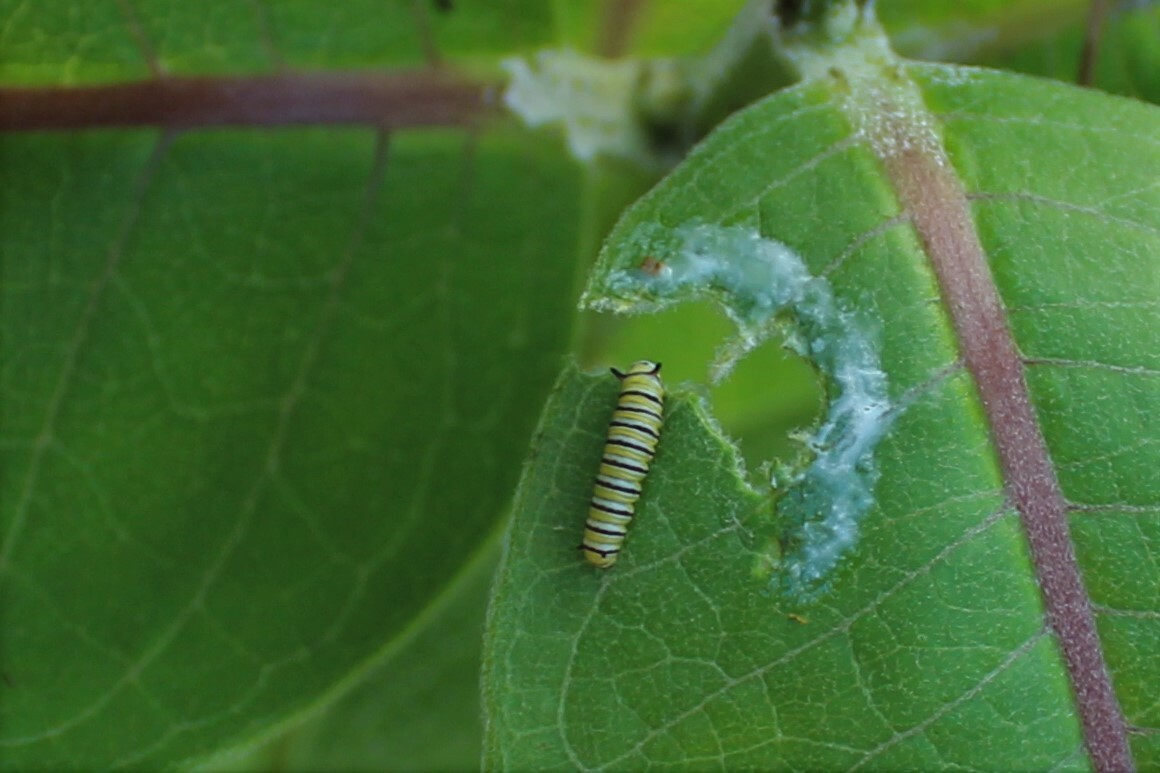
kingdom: Animalia
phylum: Arthropoda
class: Insecta
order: Lepidoptera
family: Nymphalidae
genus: Danaus
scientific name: Danaus plexippus
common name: Monarch
